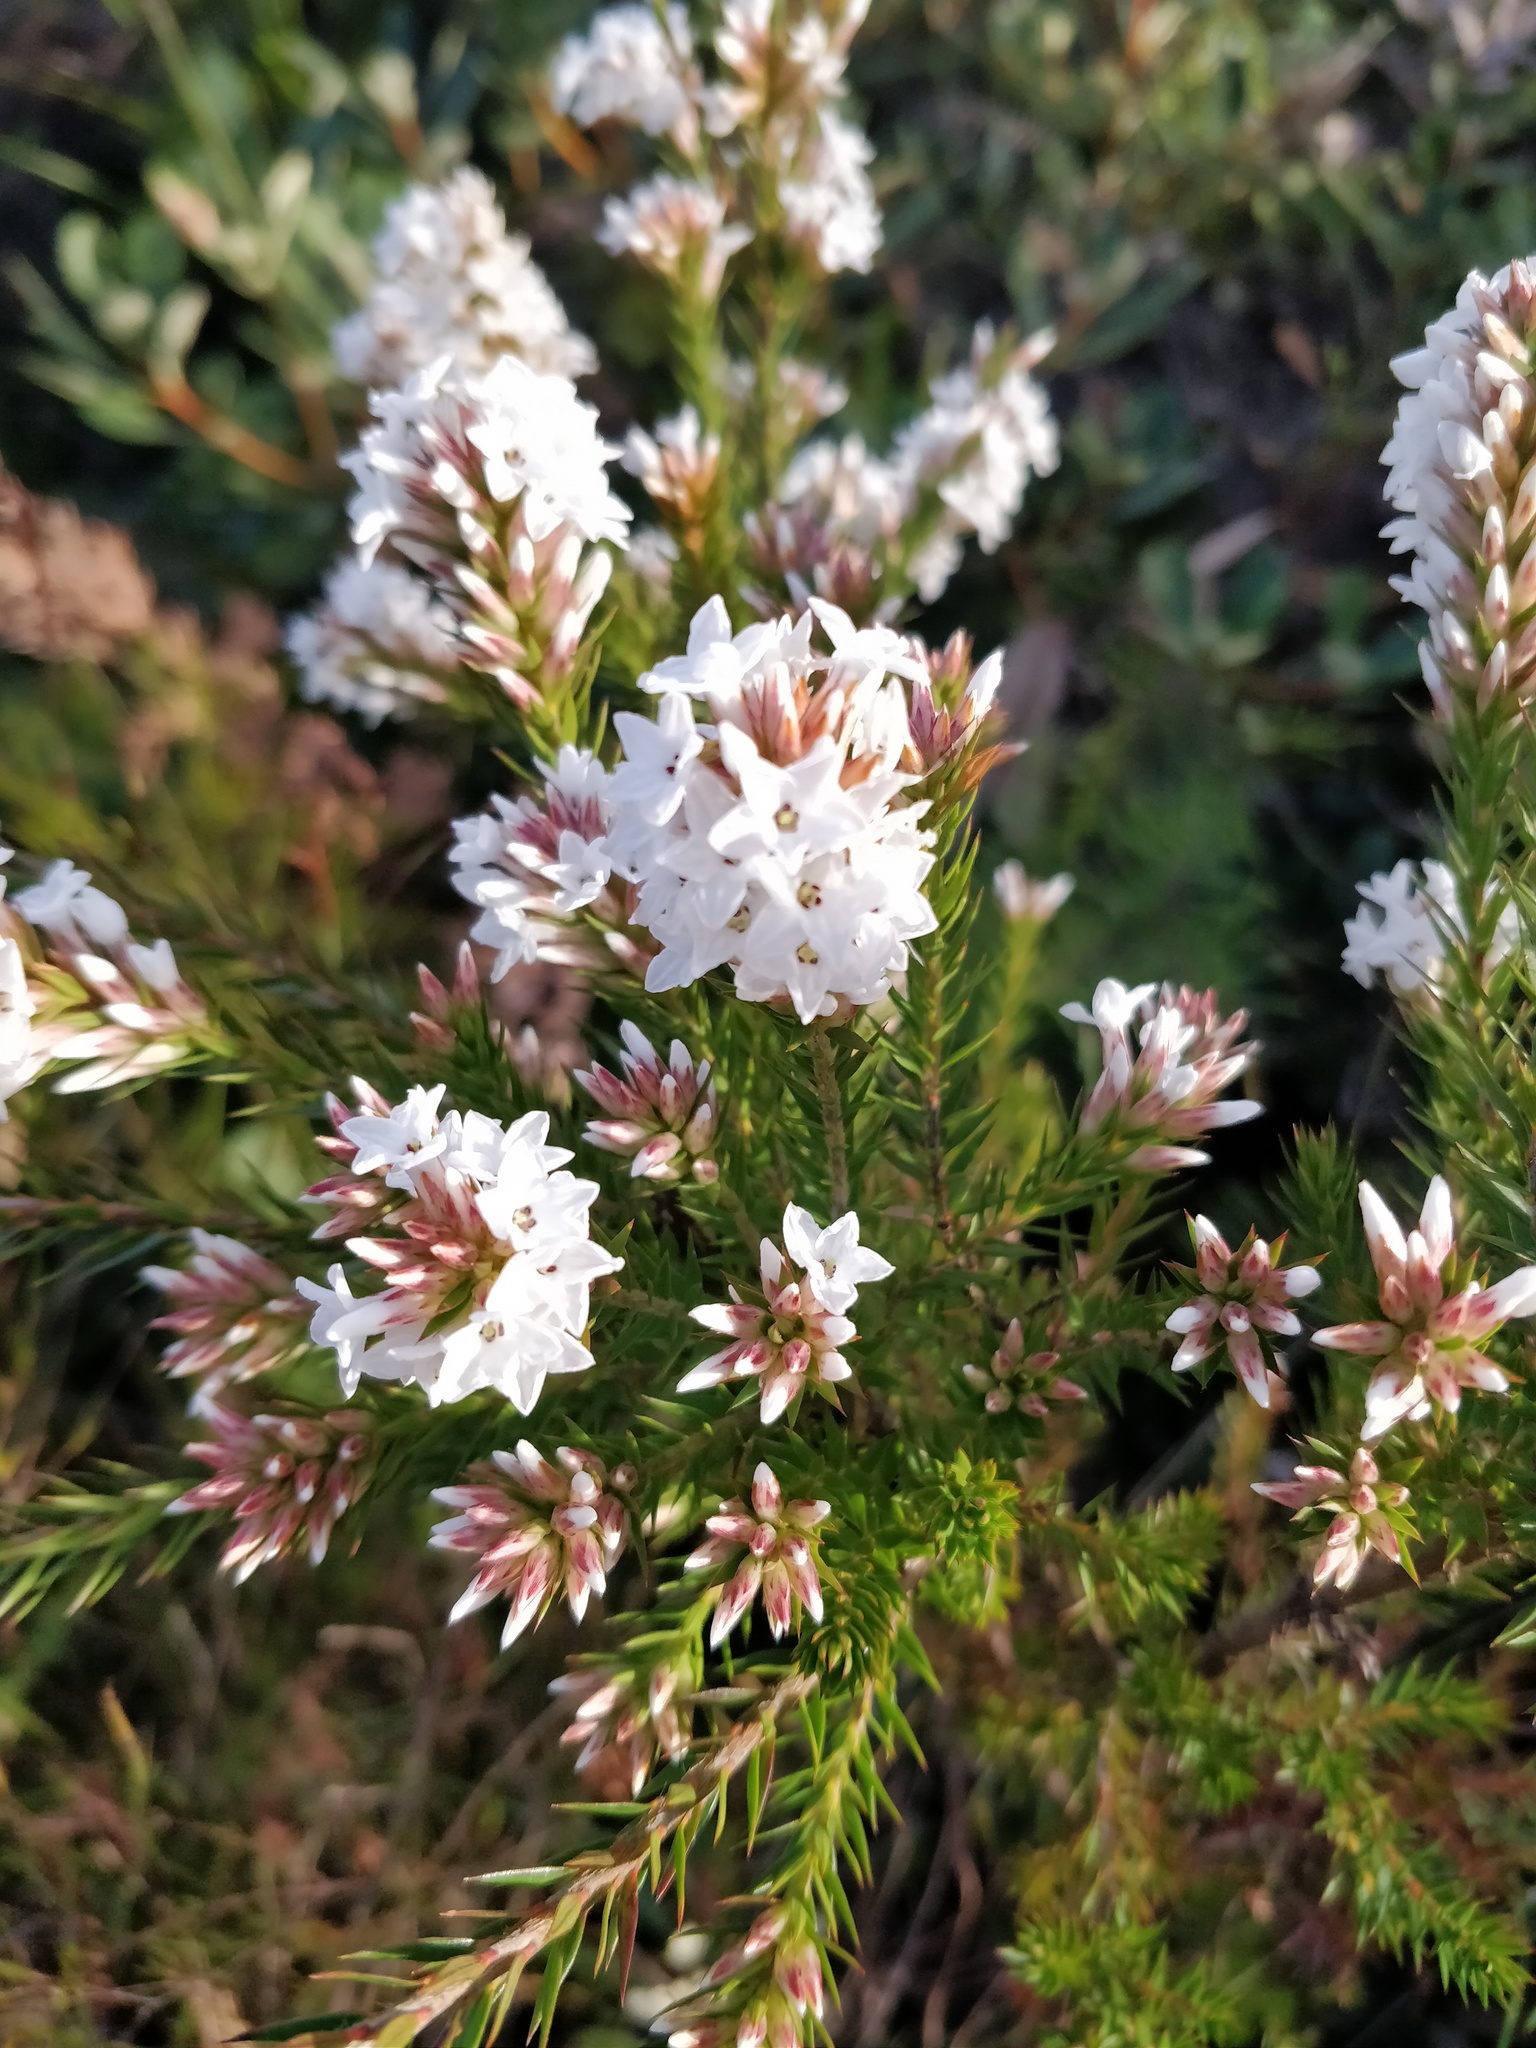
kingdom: Plantae
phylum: Tracheophyta
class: Magnoliopsida
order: Ericales
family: Ericaceae
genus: Epacris
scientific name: Epacris paludosa
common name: Swamp-heath
